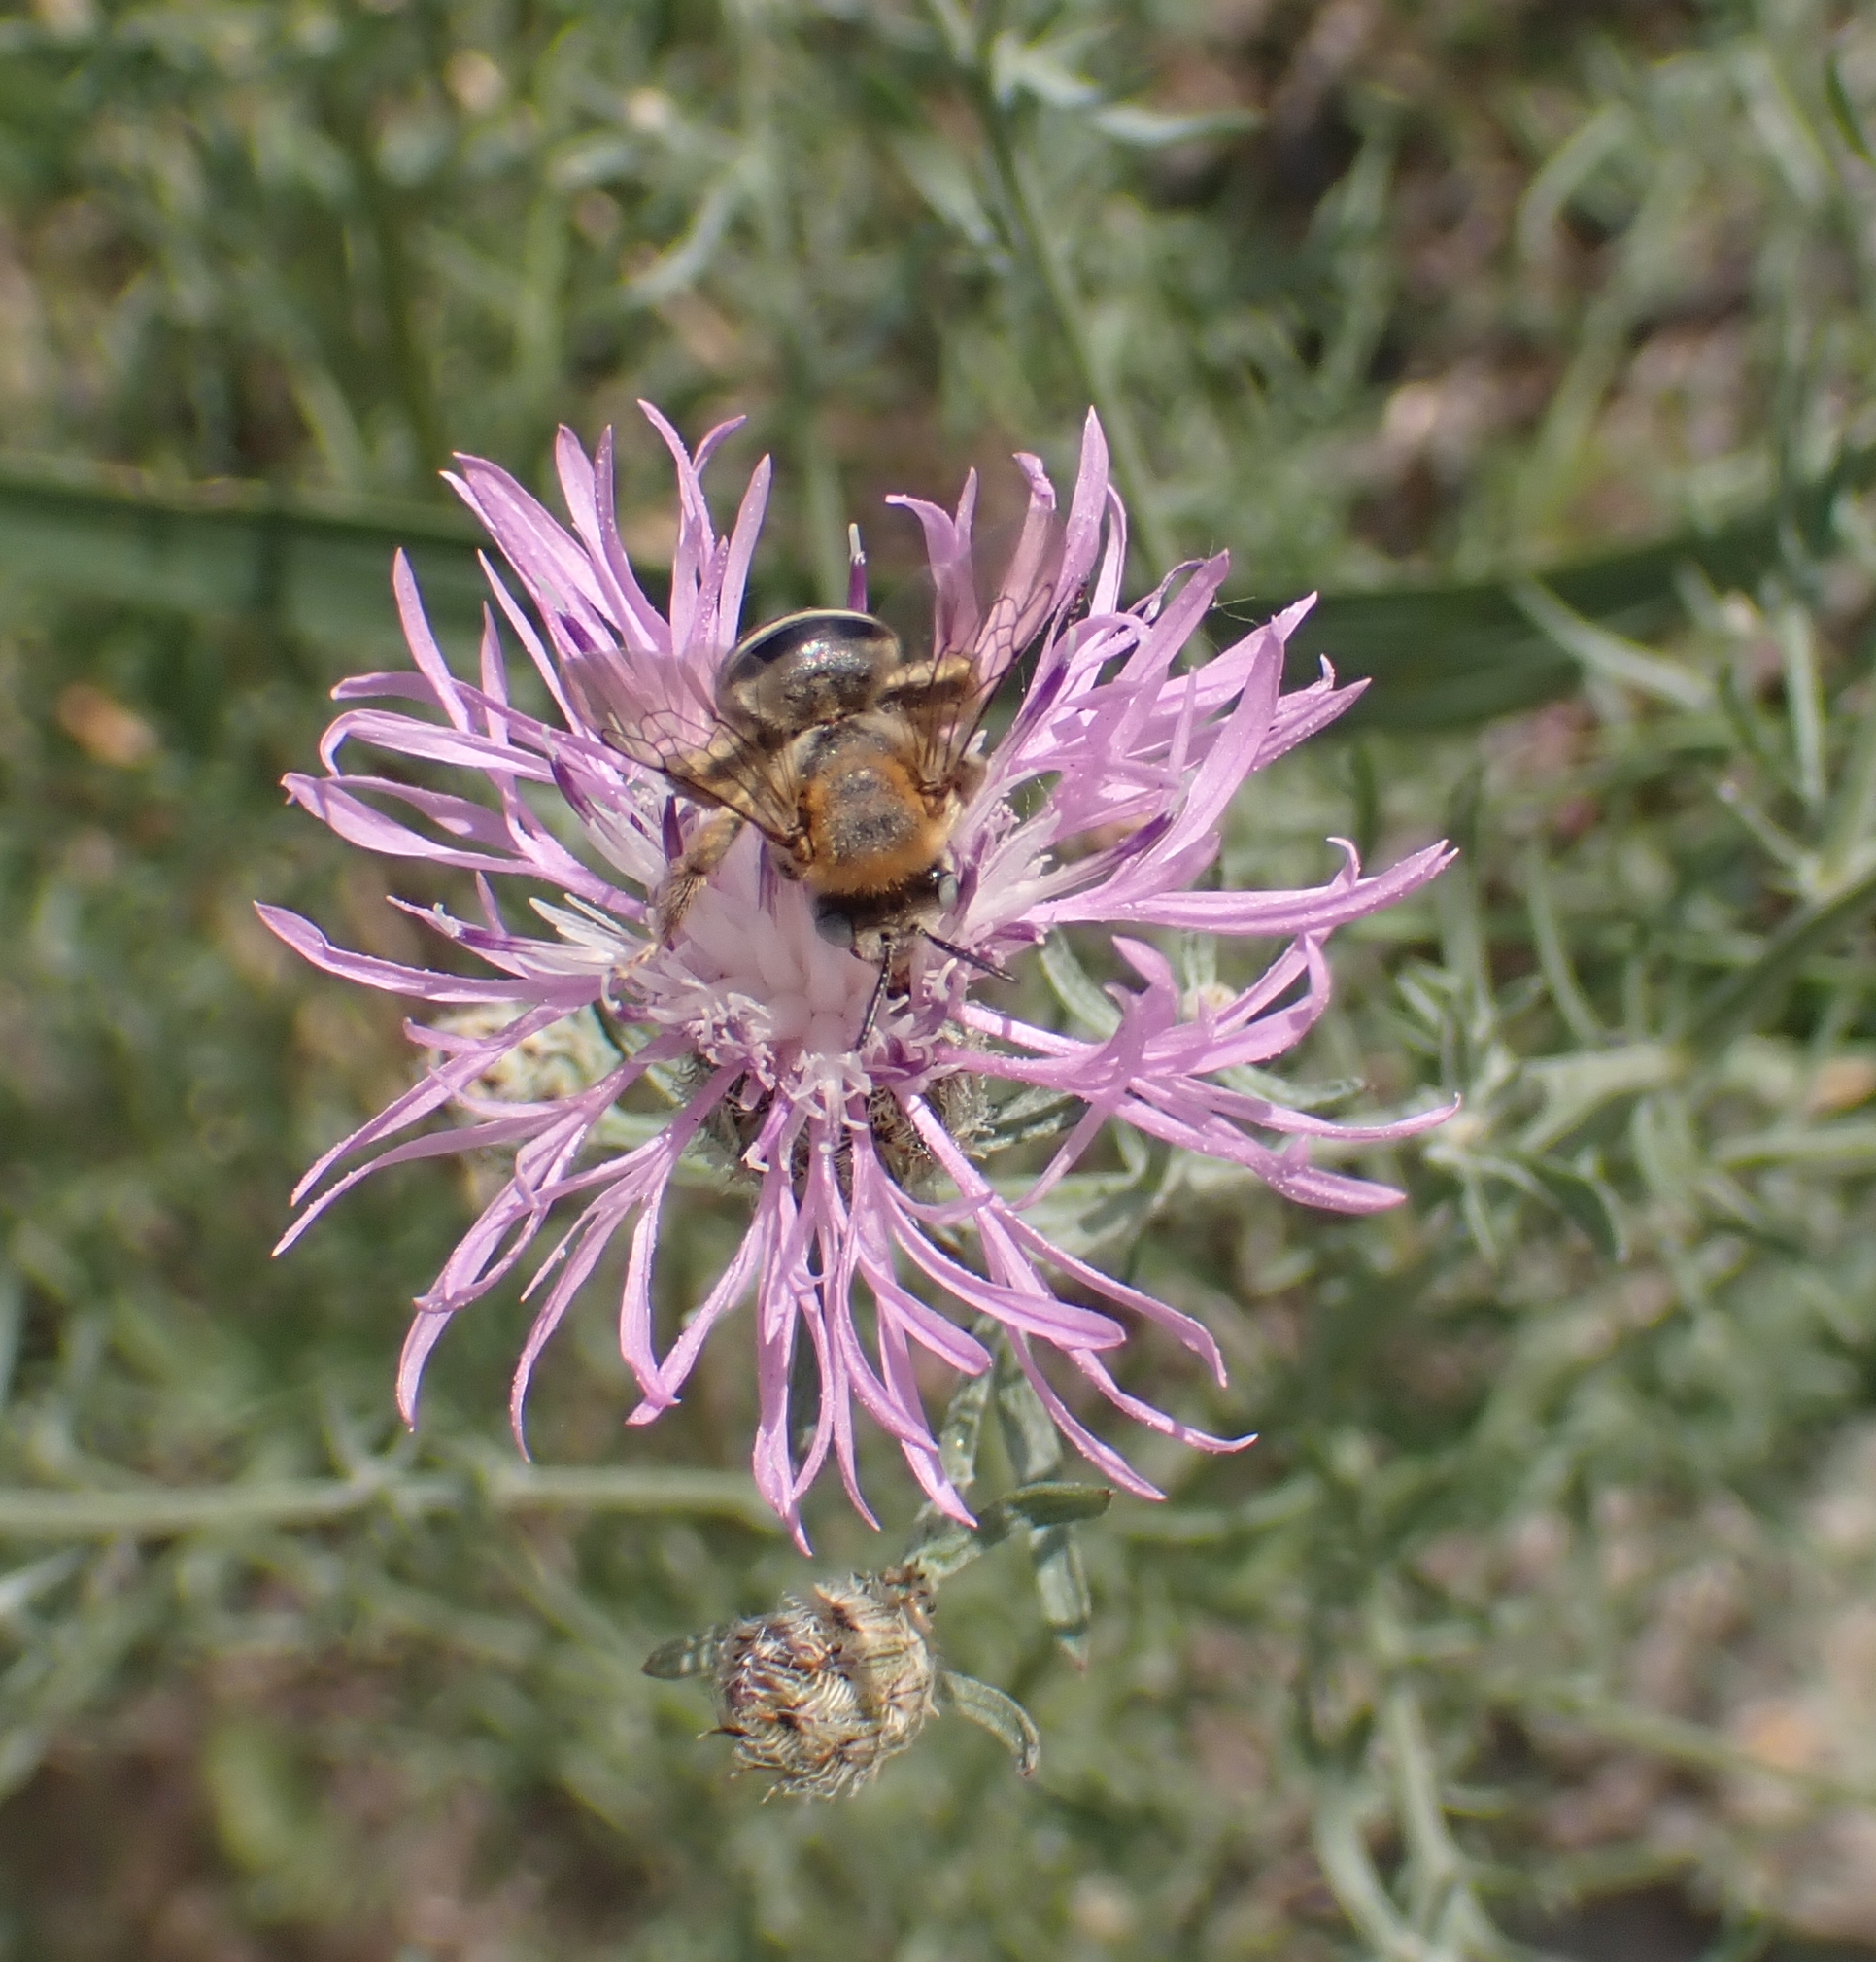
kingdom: Animalia
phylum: Arthropoda
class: Insecta
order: Hymenoptera
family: Apidae
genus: Tetraloniella
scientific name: Tetraloniella dentata
